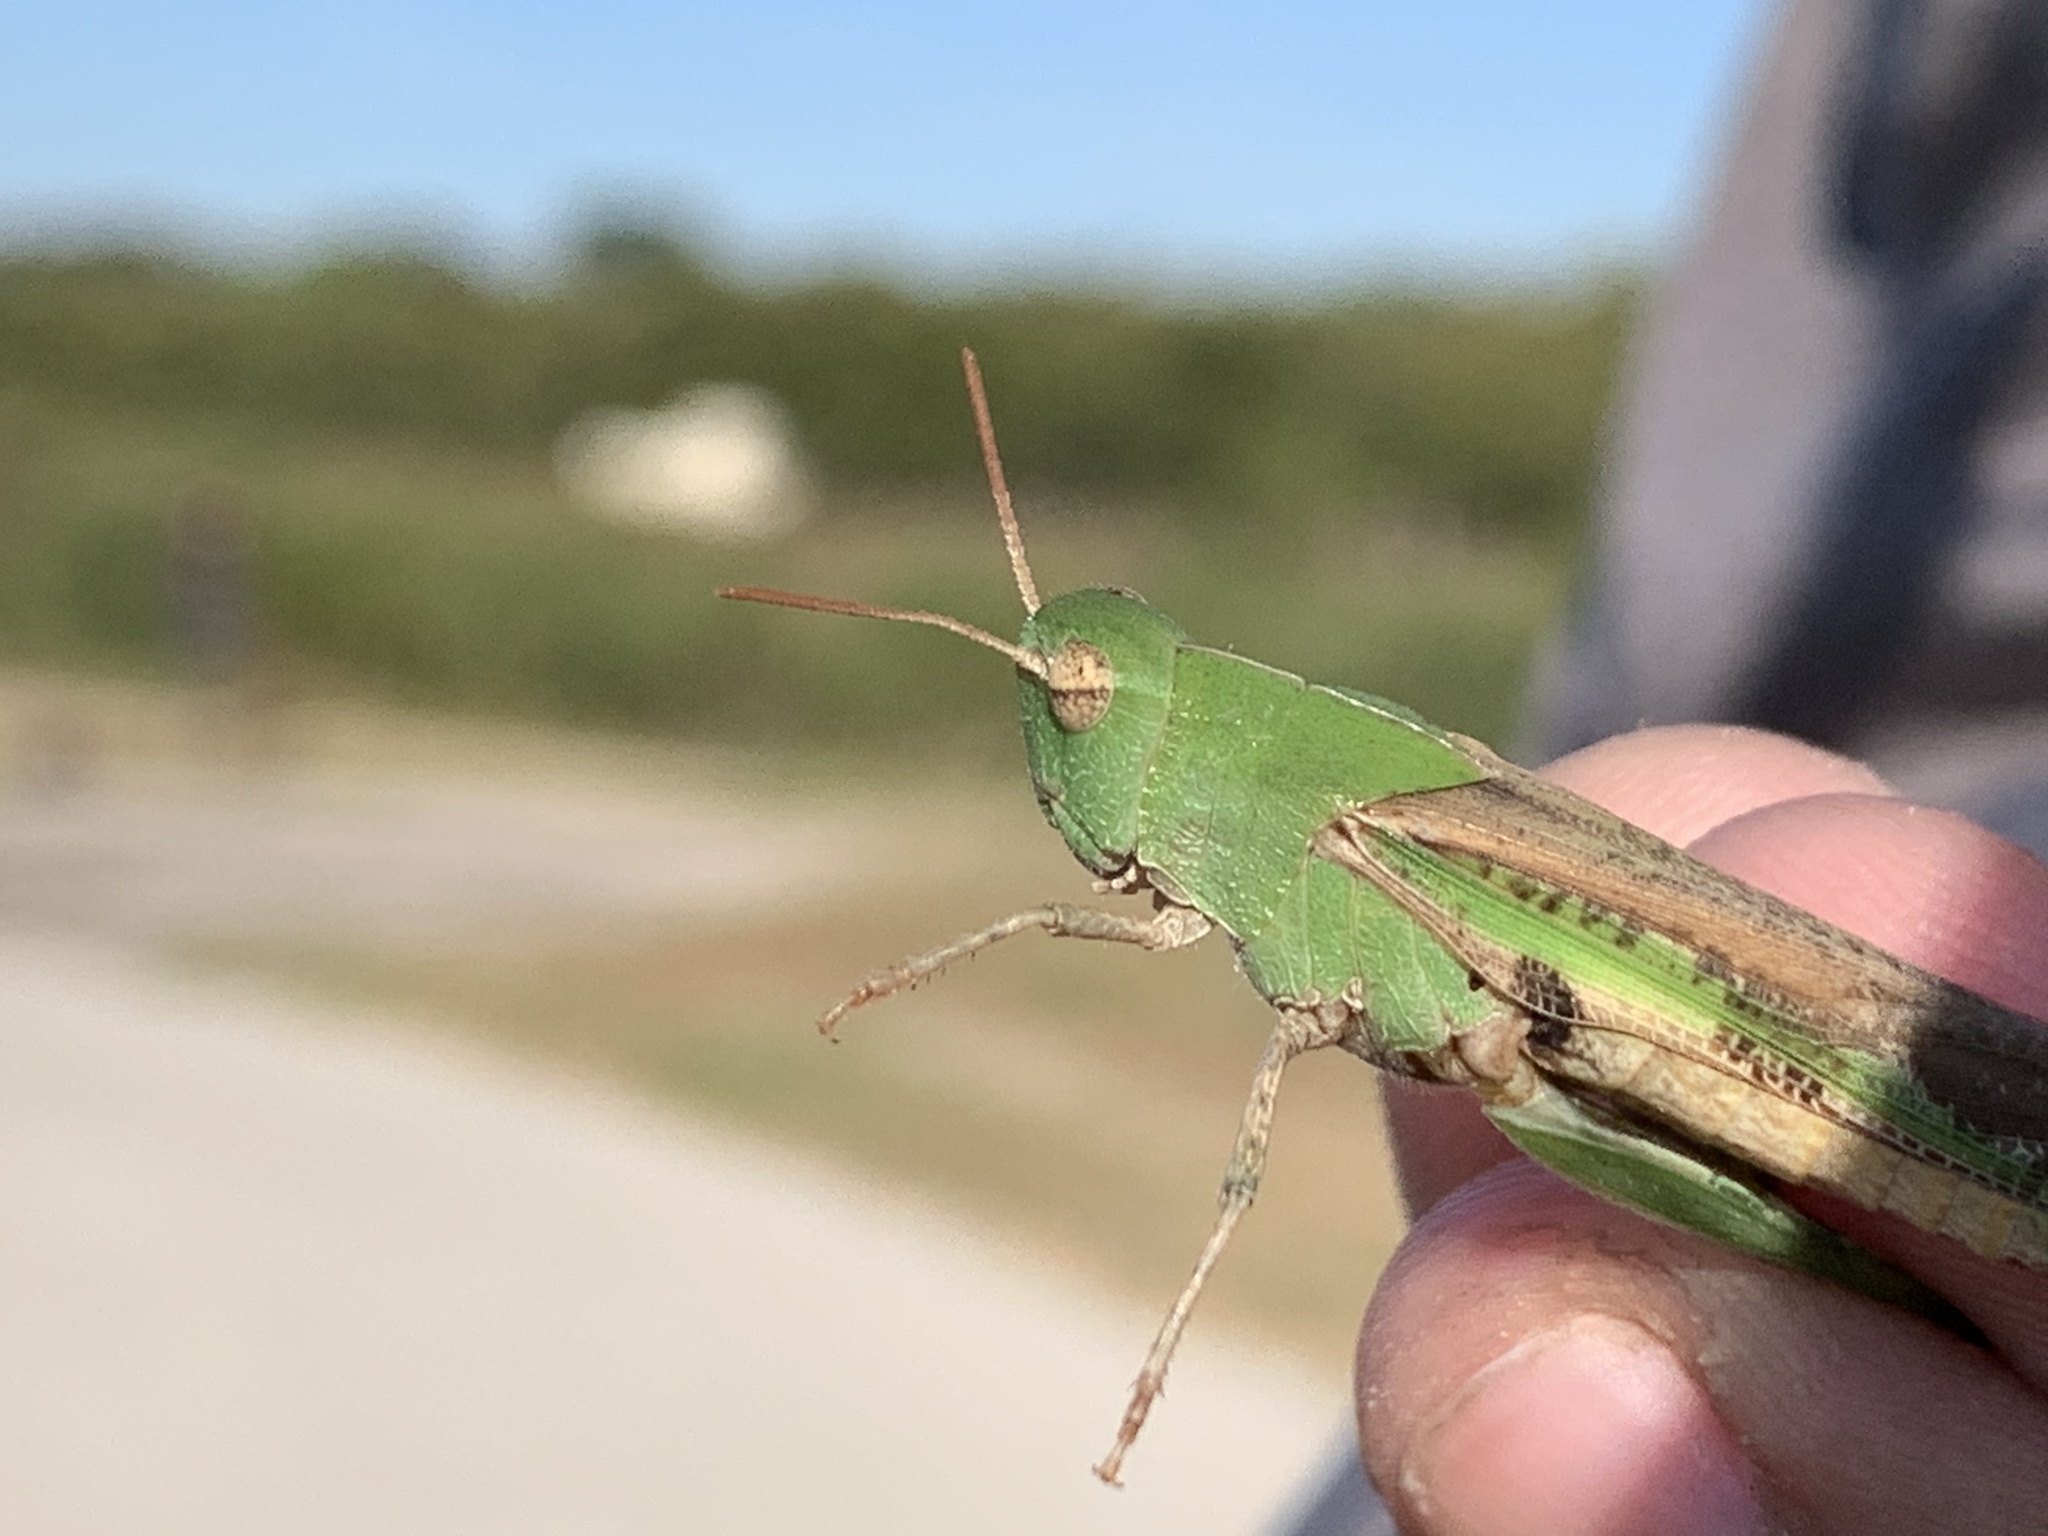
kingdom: Animalia
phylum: Arthropoda
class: Insecta
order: Orthoptera
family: Acrididae
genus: Chortophaga
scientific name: Chortophaga viridifasciata
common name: Green-striped grasshopper
